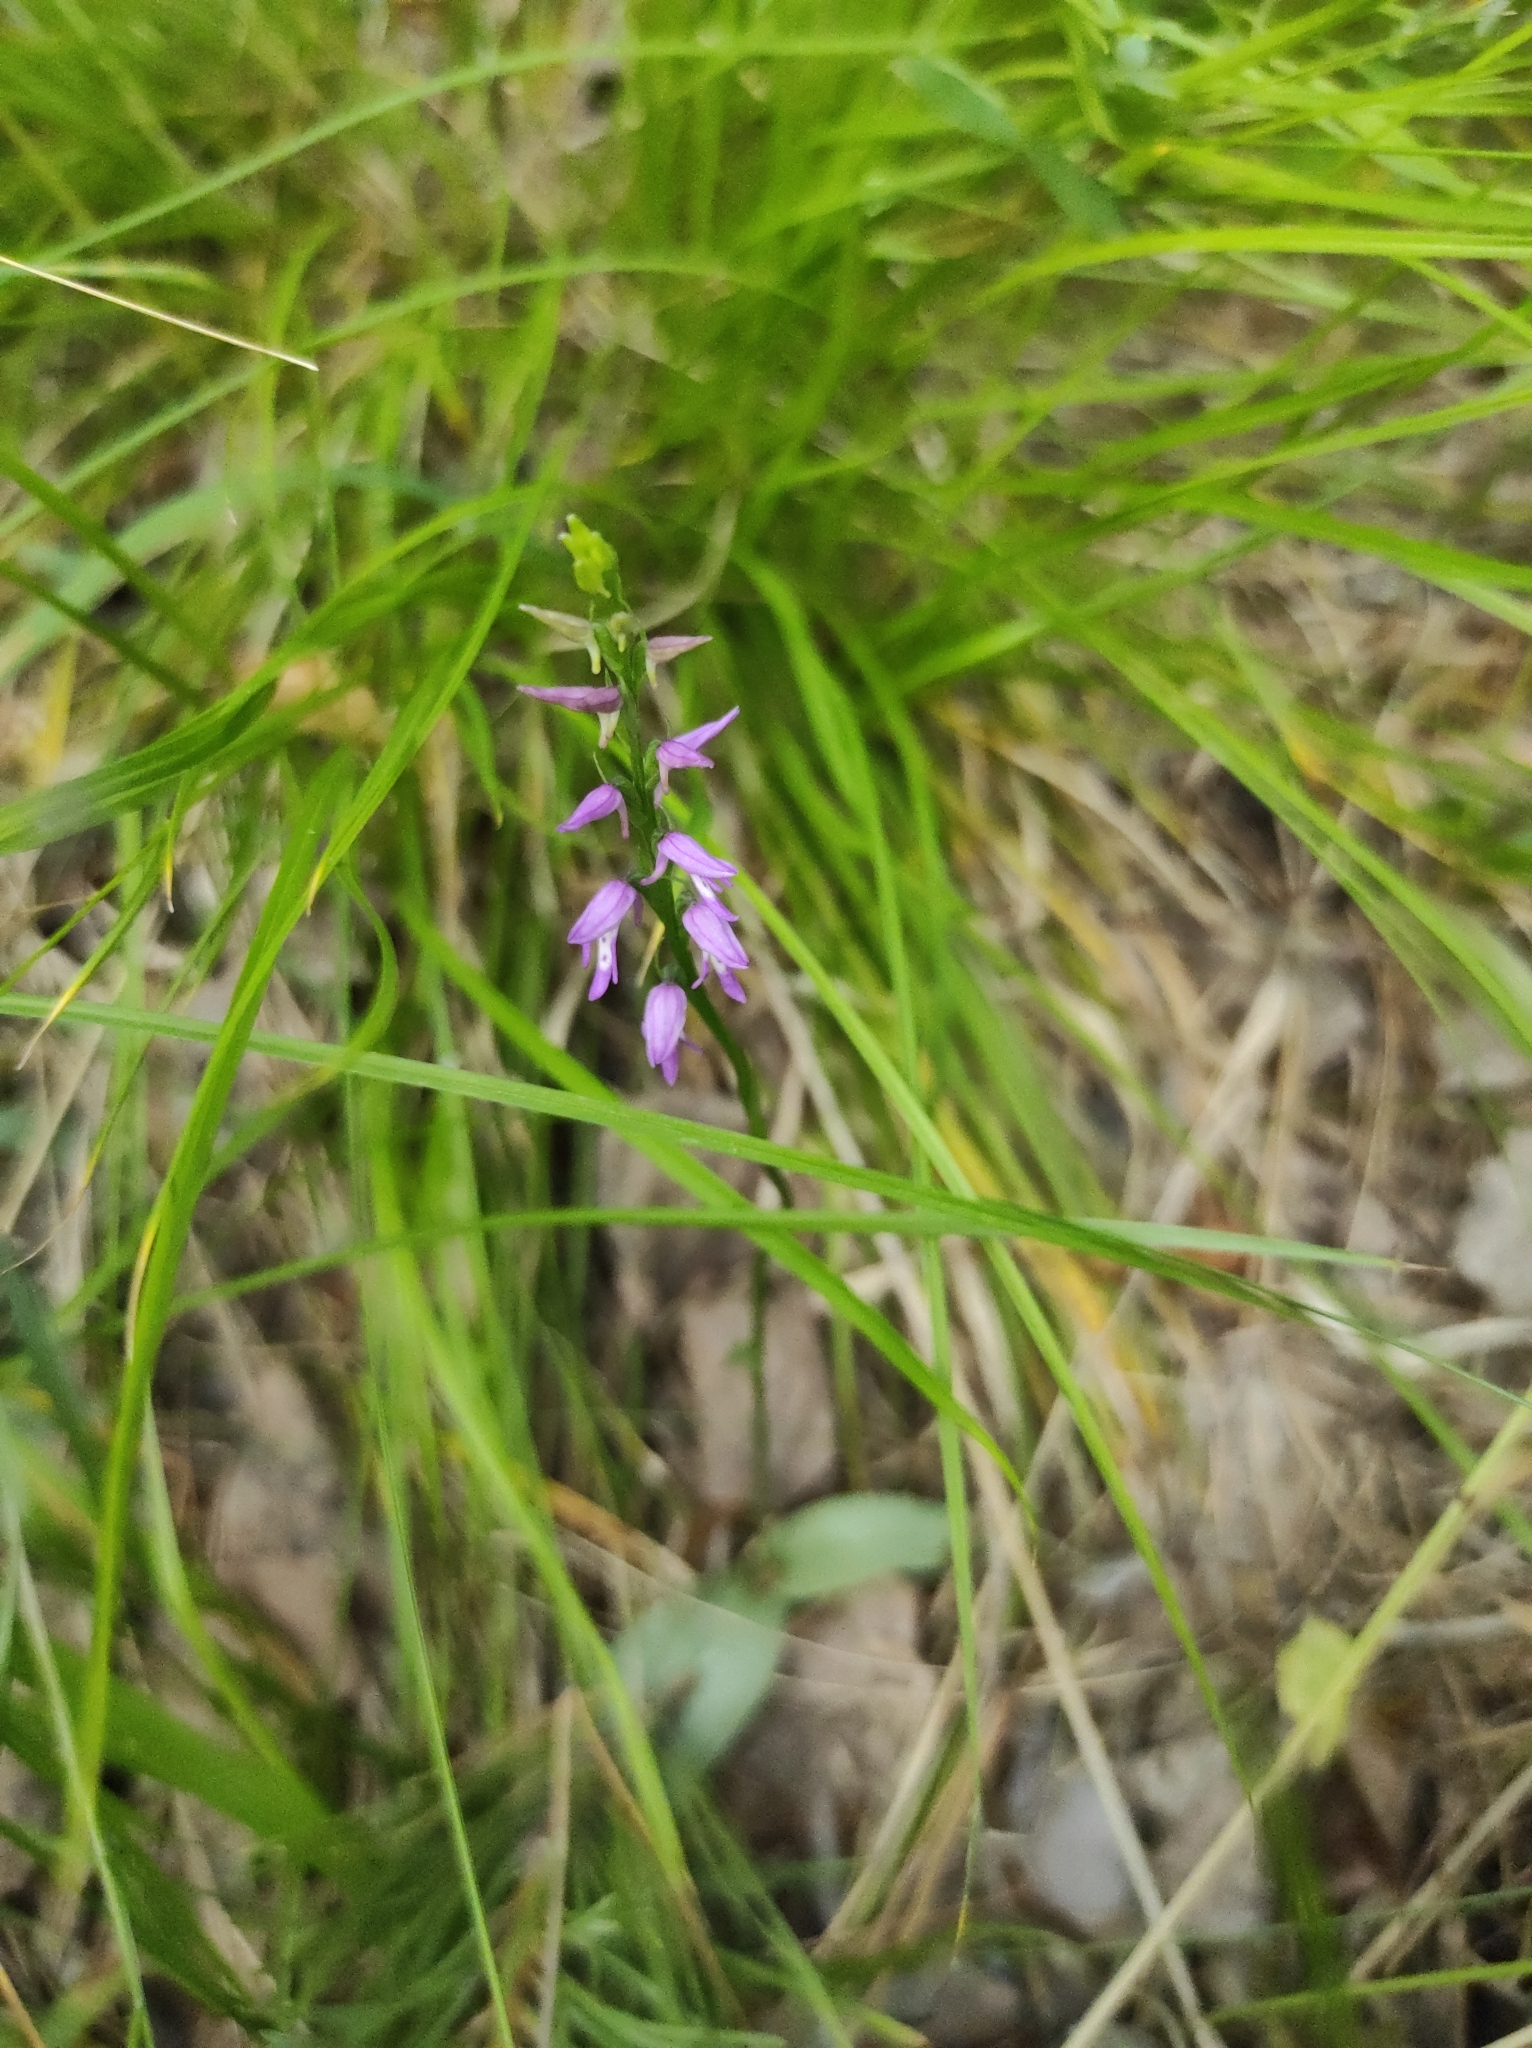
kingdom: Plantae
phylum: Tracheophyta
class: Liliopsida
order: Asparagales
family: Orchidaceae
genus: Hemipilia
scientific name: Hemipilia cucullata
